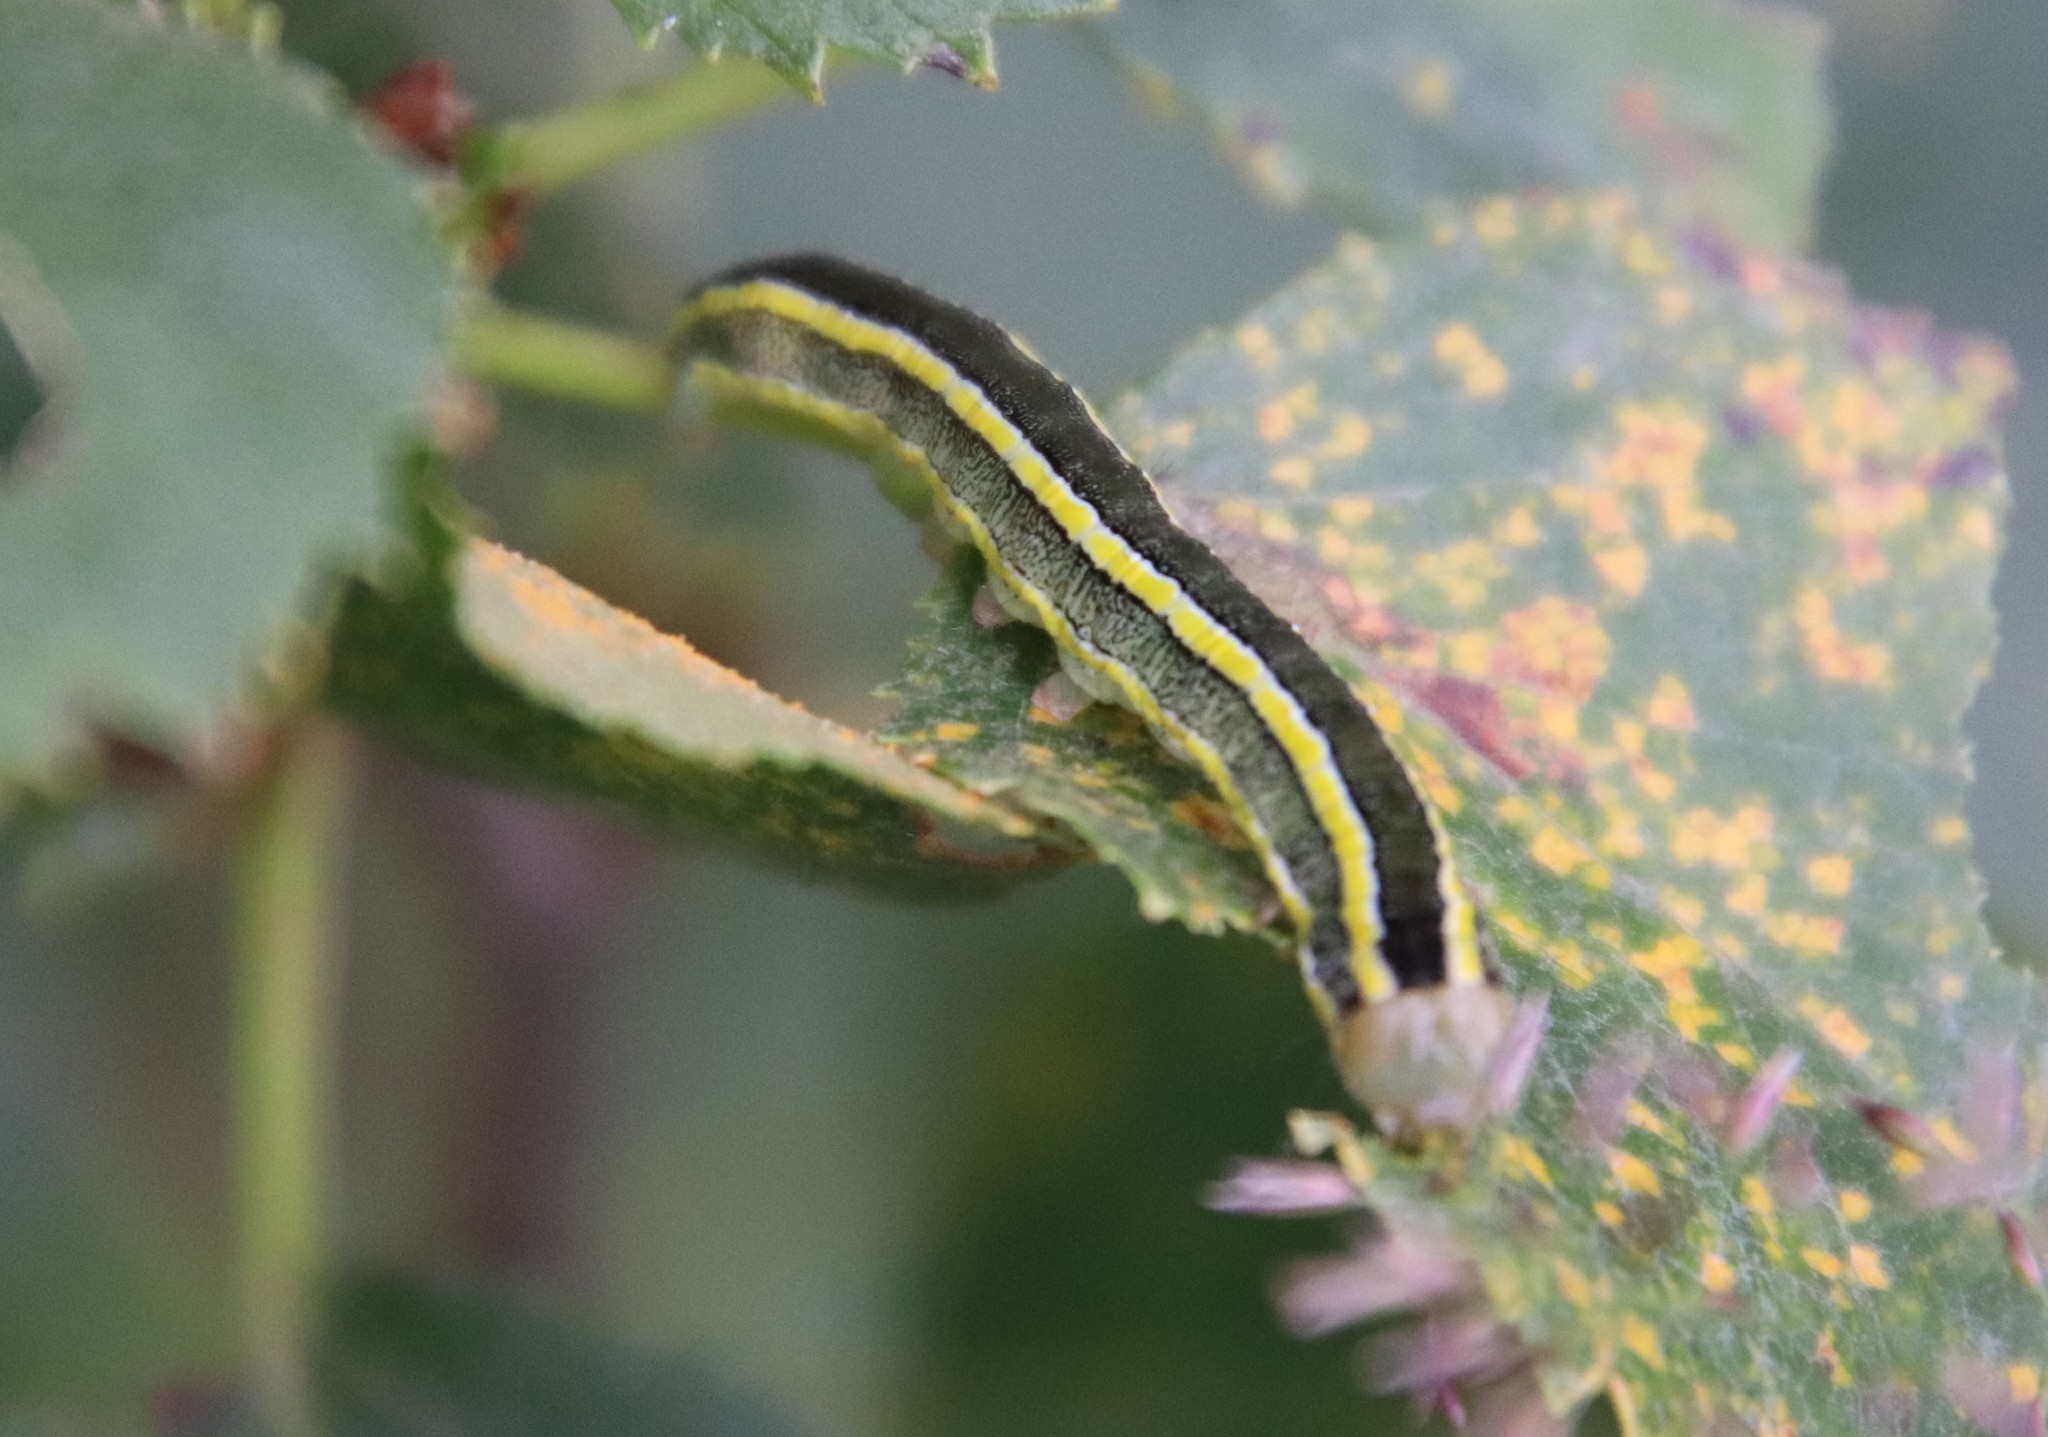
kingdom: Animalia
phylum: Arthropoda
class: Insecta
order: Lepidoptera
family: Noctuidae
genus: Ceramica
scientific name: Ceramica pisi
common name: Broom moth
